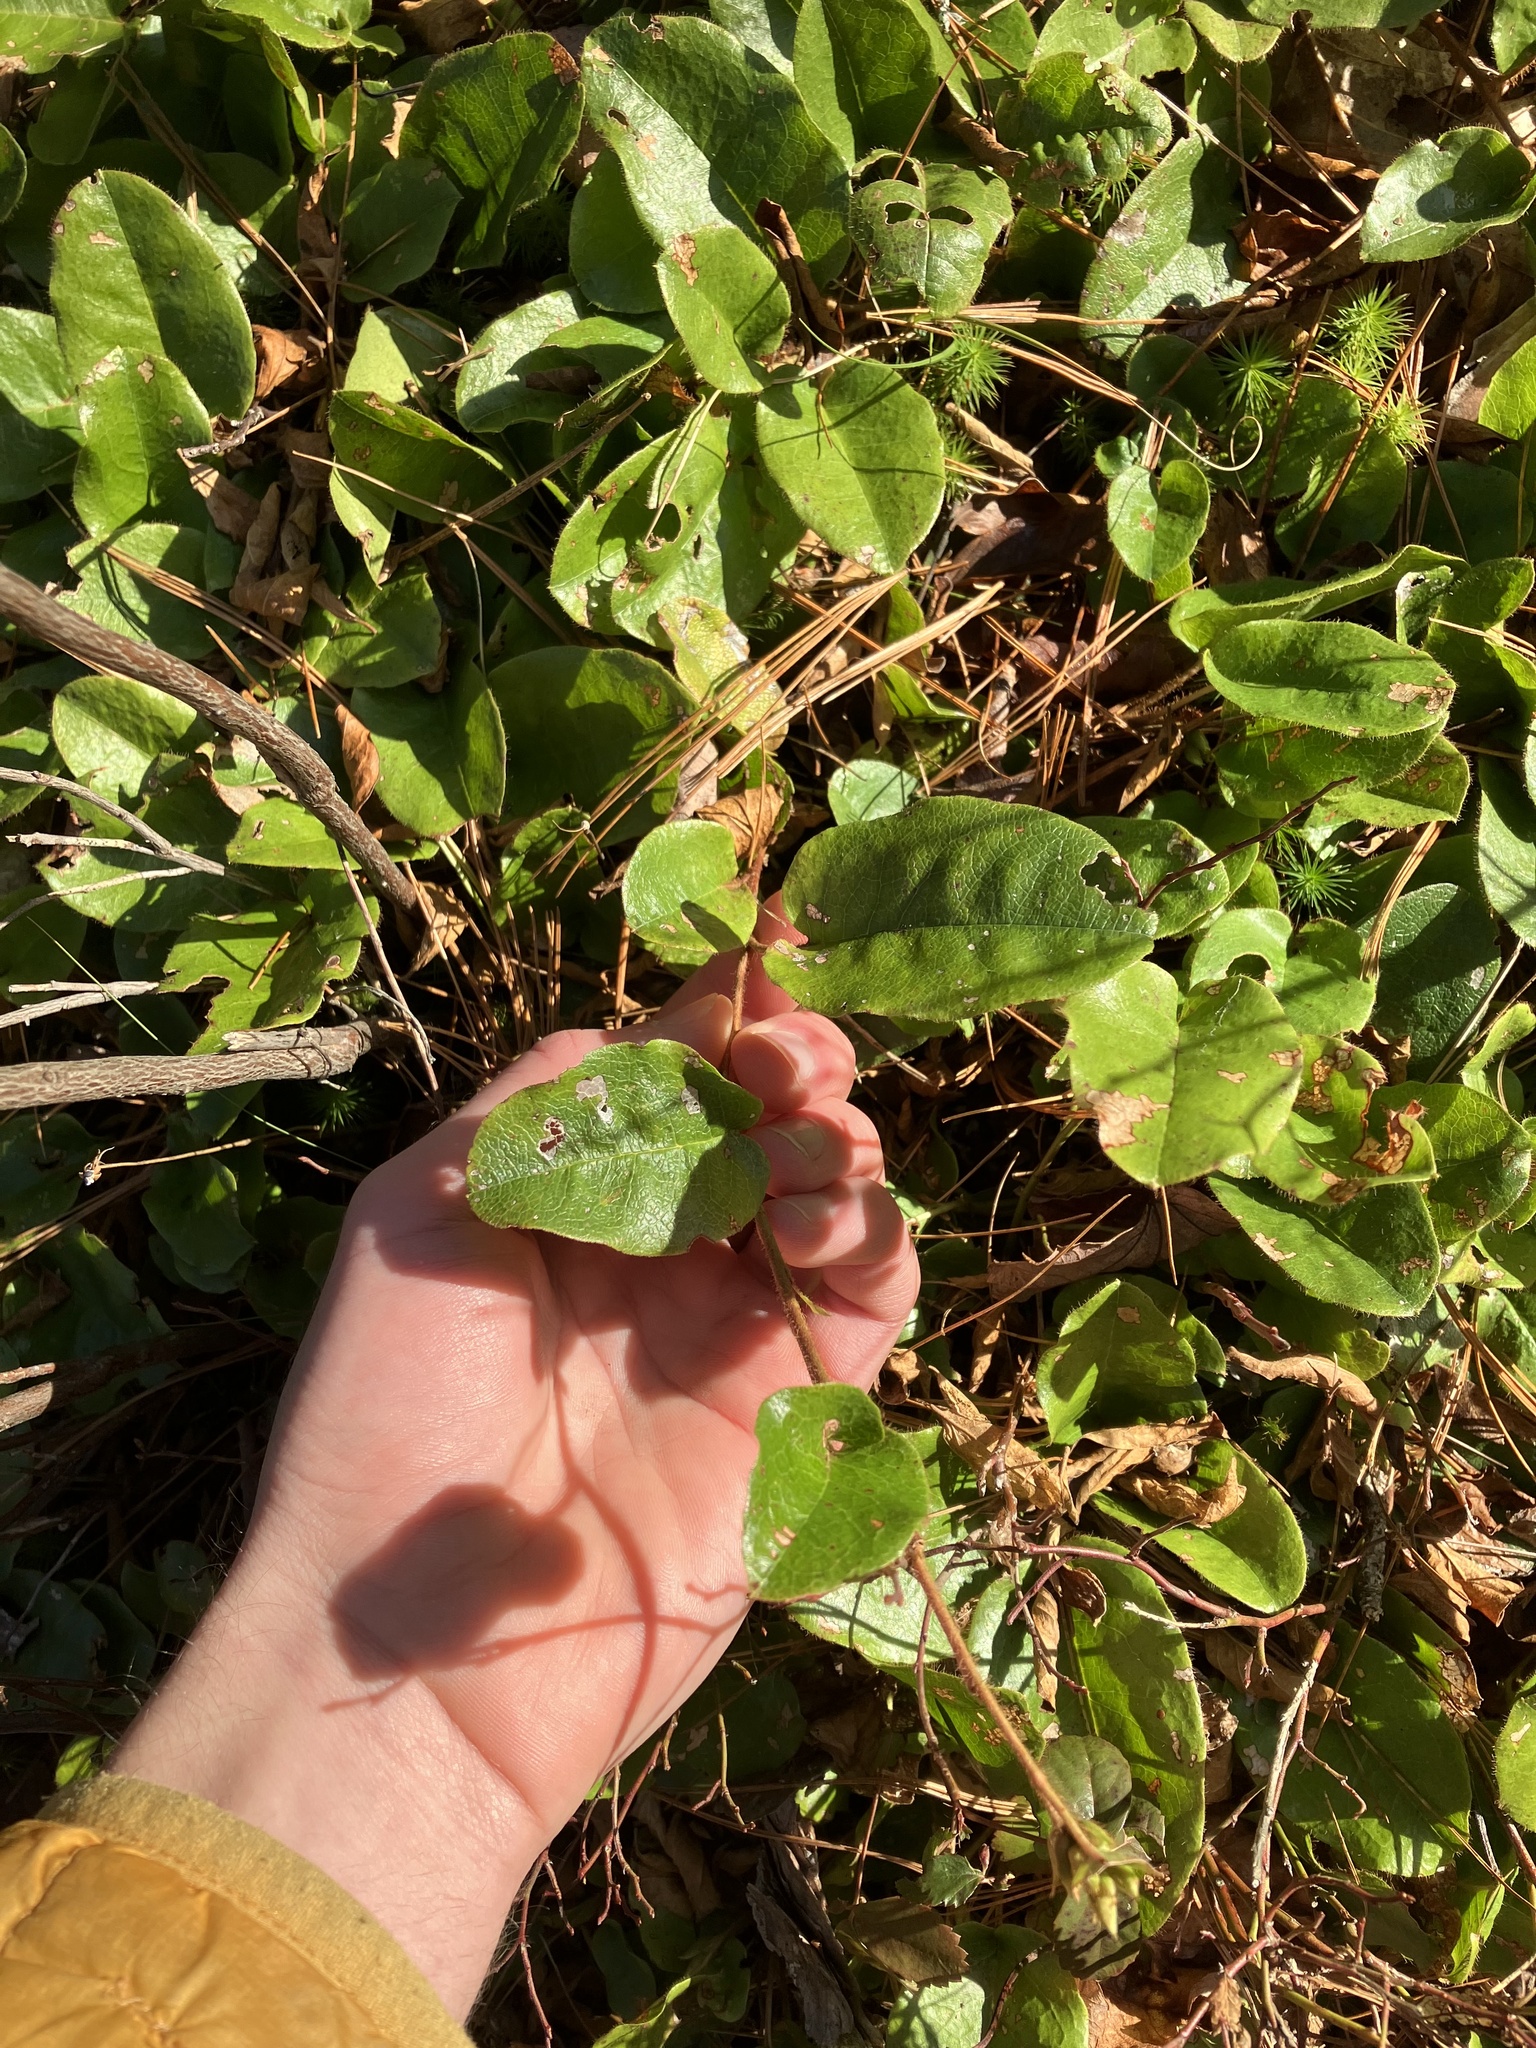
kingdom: Plantae
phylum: Tracheophyta
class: Magnoliopsida
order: Ericales
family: Ericaceae
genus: Epigaea
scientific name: Epigaea repens
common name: Gravelroot
